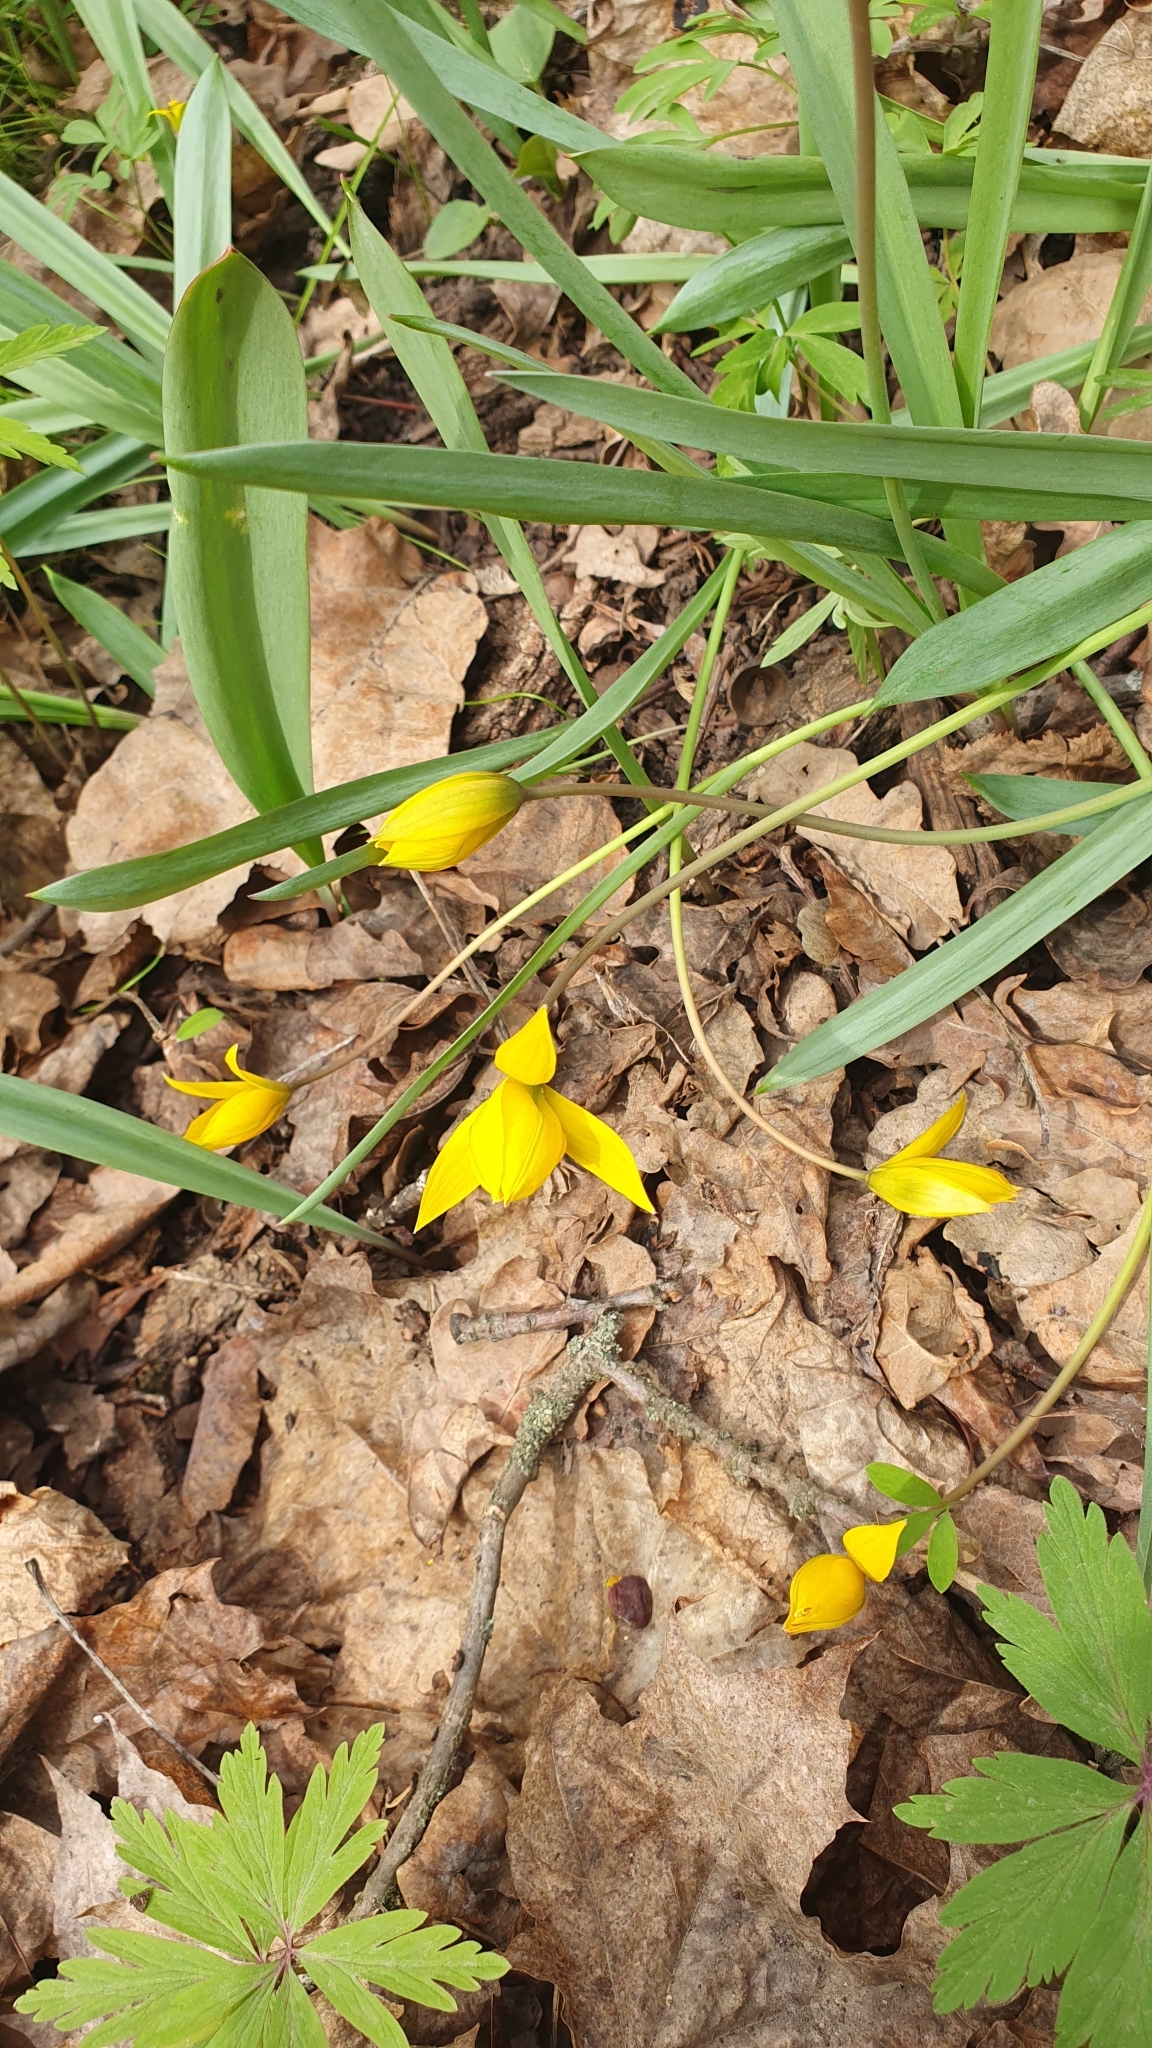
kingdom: Plantae
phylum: Tracheophyta
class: Liliopsida
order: Liliales
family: Liliaceae
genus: Tulipa
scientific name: Tulipa sylvestris
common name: Wild tulip
